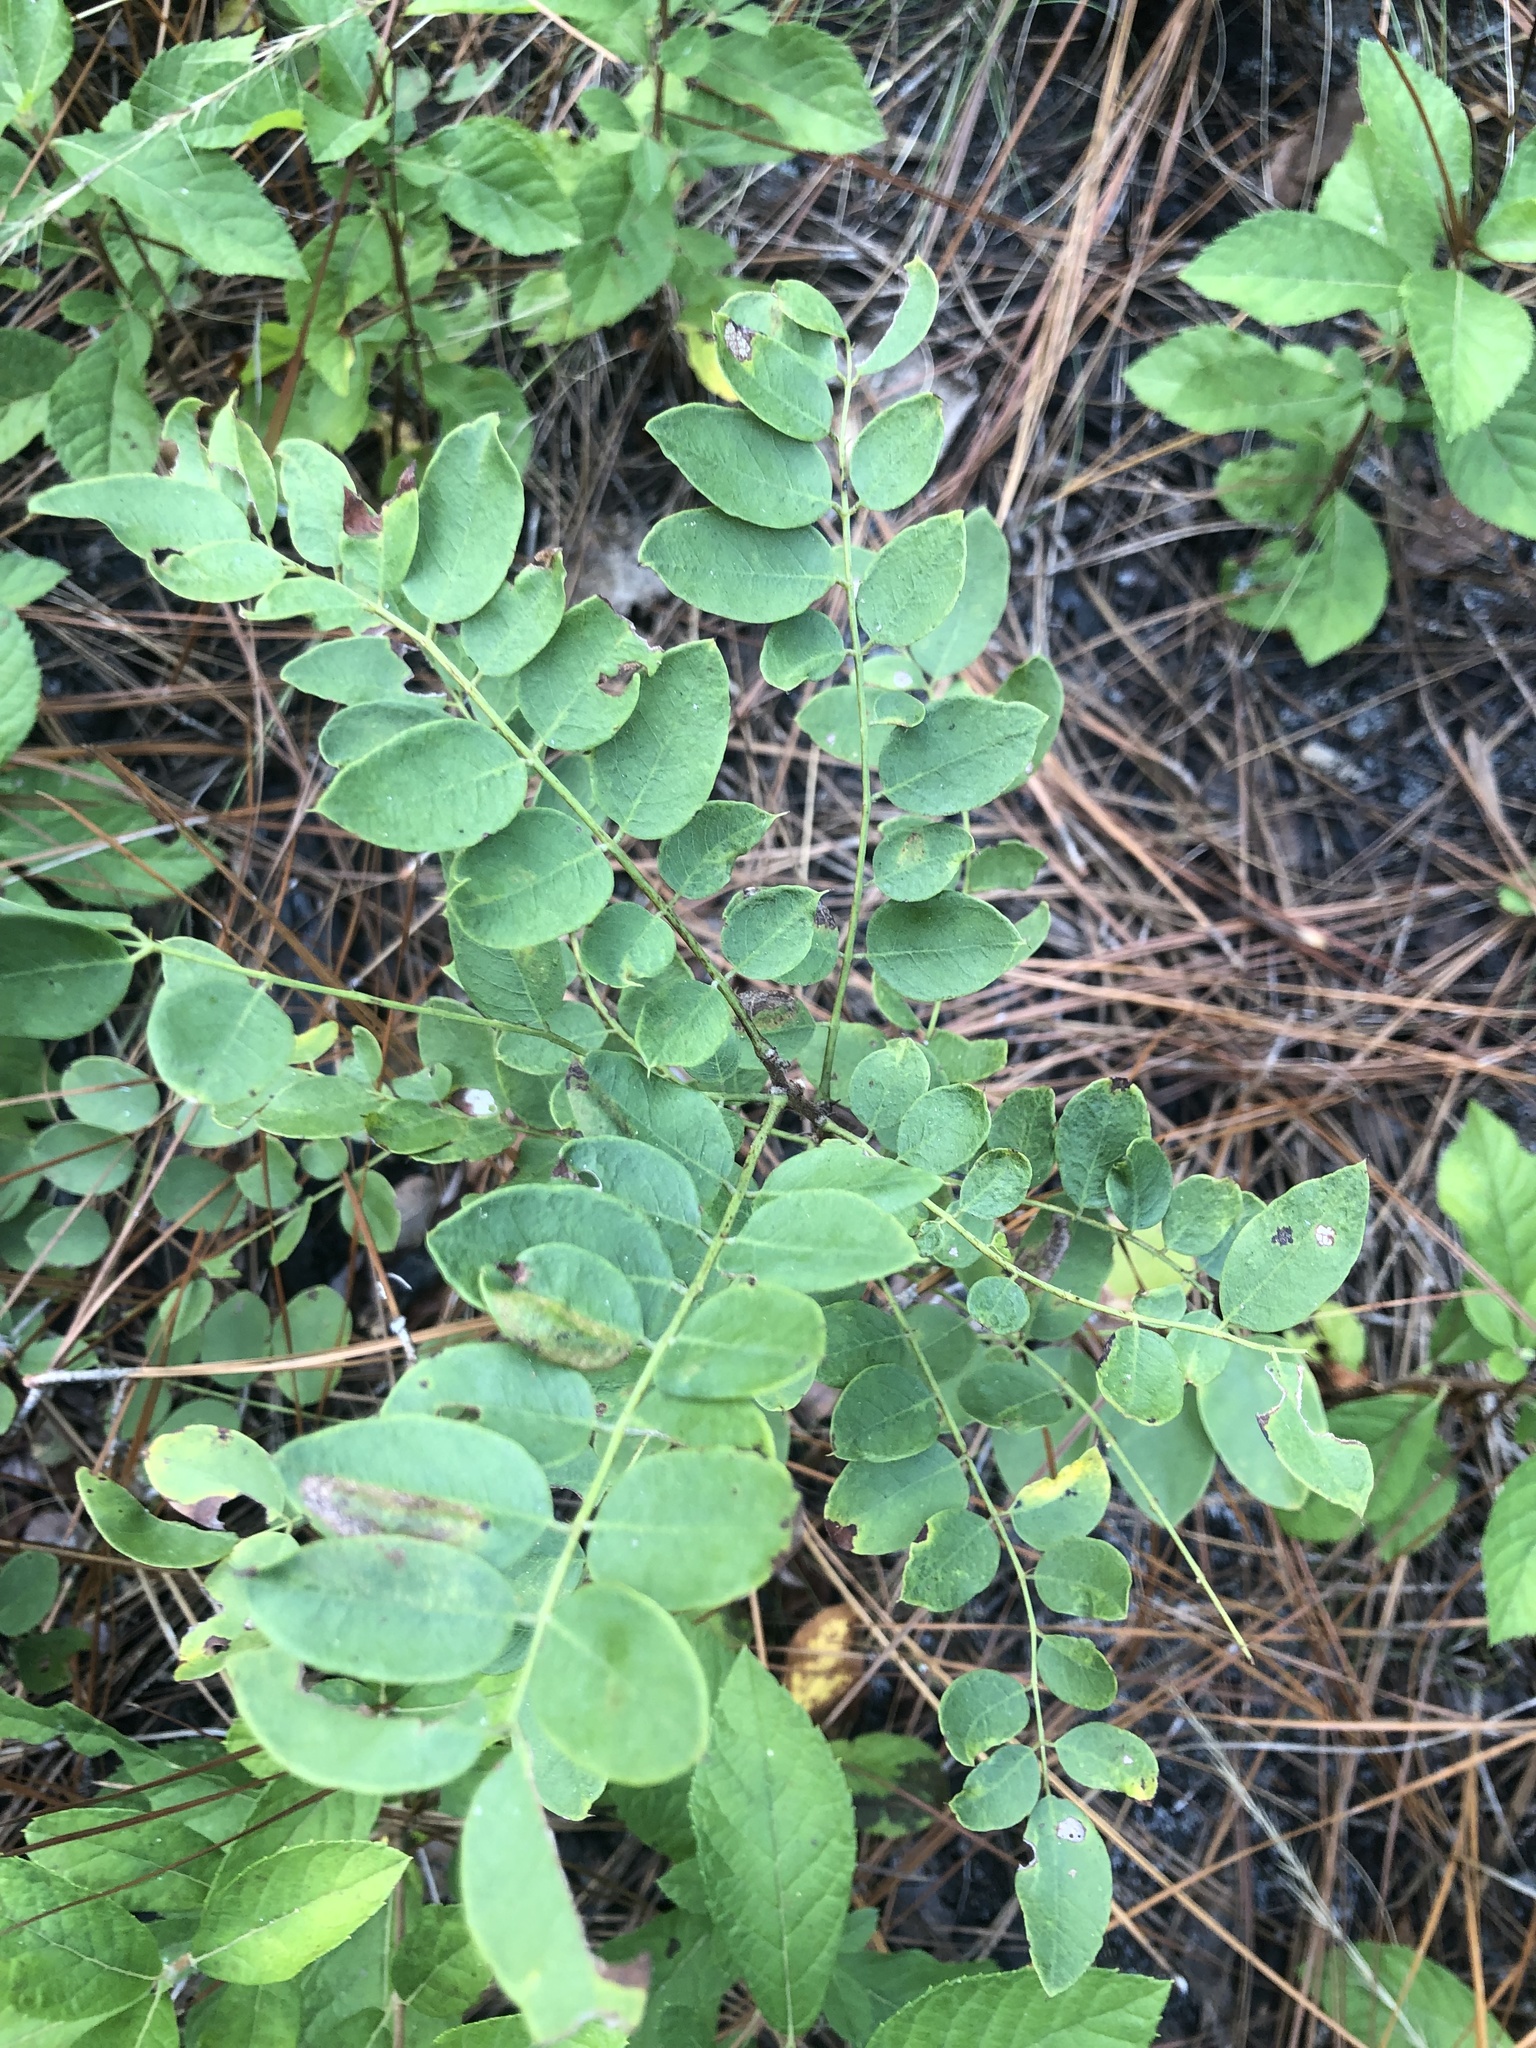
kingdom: Plantae
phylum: Tracheophyta
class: Magnoliopsida
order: Fabales
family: Fabaceae
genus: Robinia
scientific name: Robinia hispida
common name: Bristly locust
